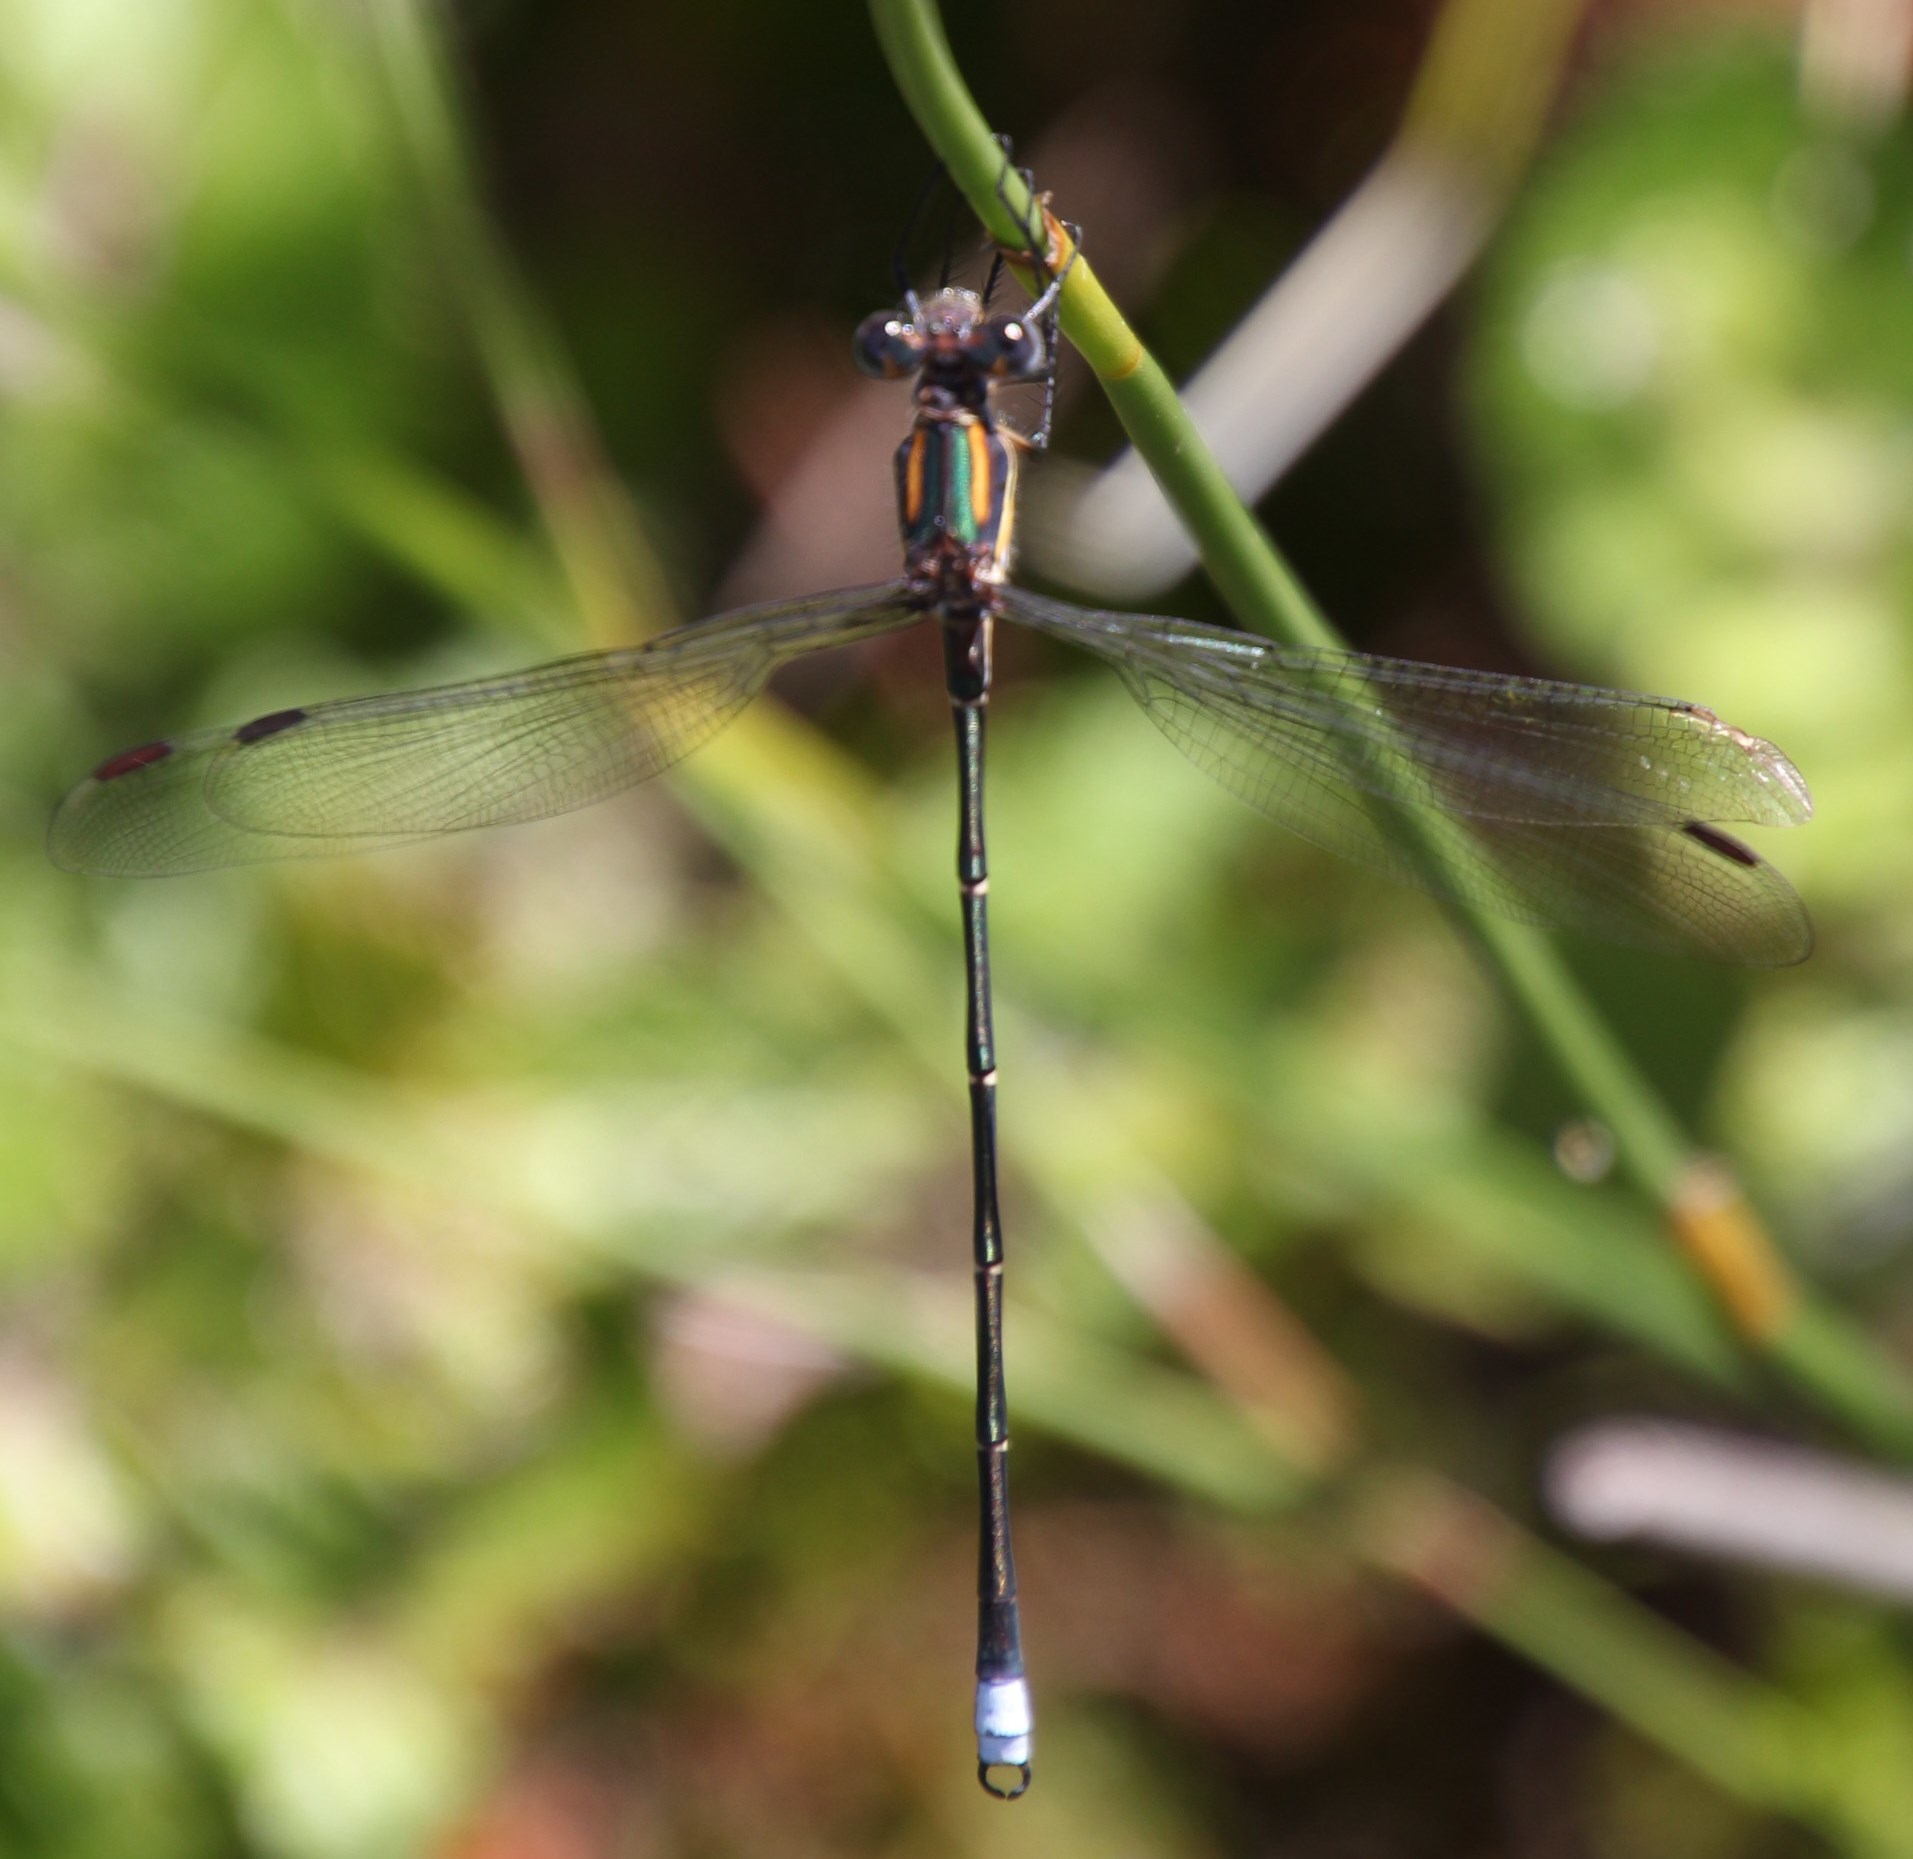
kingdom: Animalia
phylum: Arthropoda
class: Insecta
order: Odonata
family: Synlestidae
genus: Chlorolestes
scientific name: Chlorolestes conspicuus
